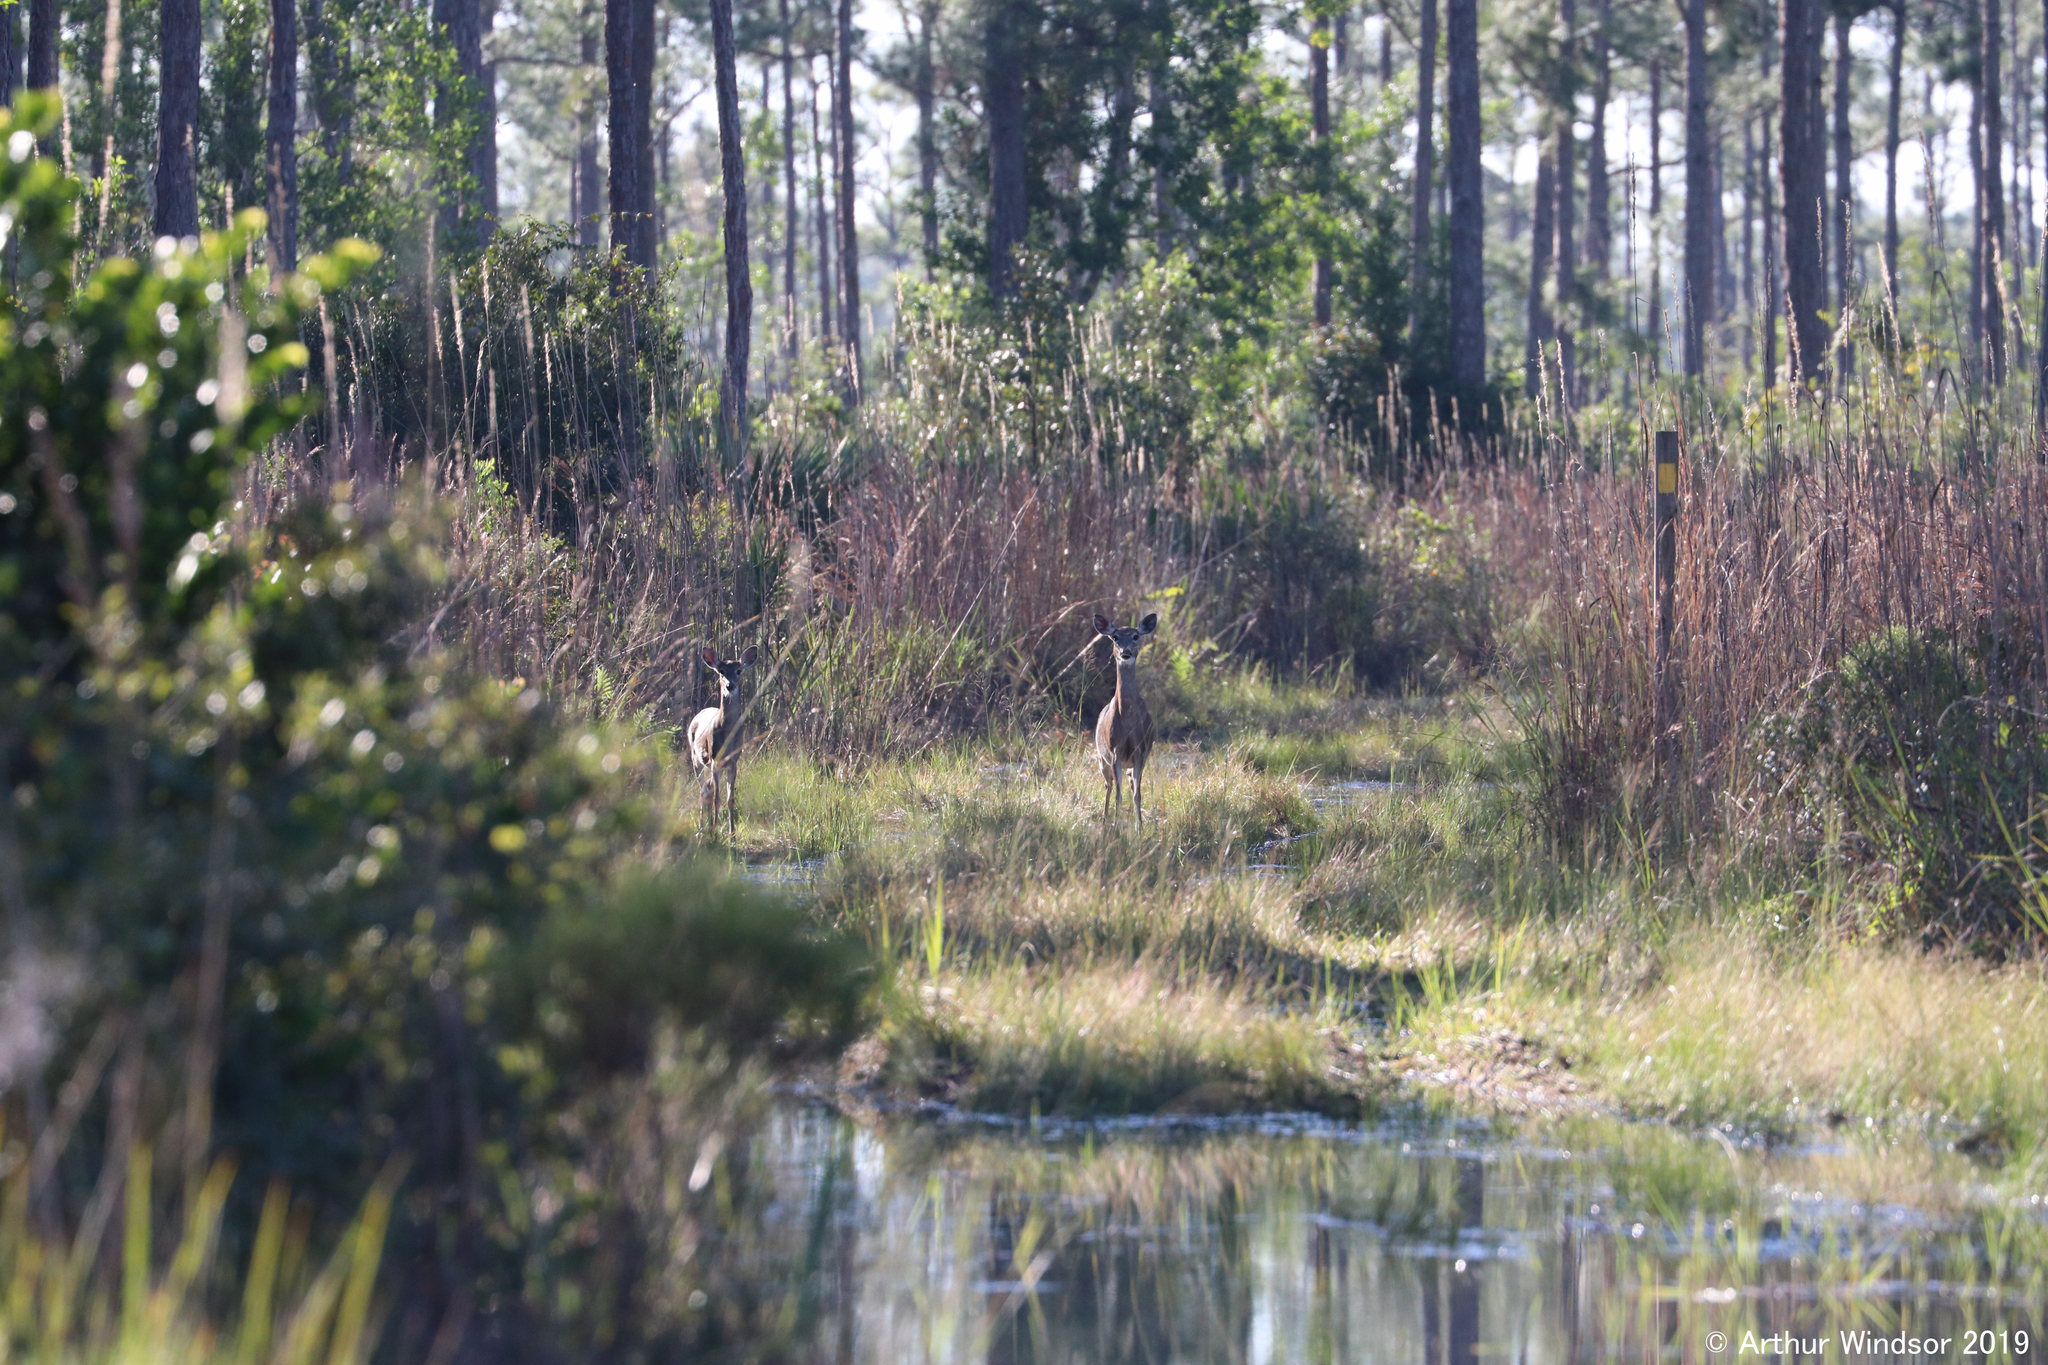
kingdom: Animalia
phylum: Chordata
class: Mammalia
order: Artiodactyla
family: Cervidae
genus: Odocoileus
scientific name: Odocoileus virginianus
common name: White-tailed deer
